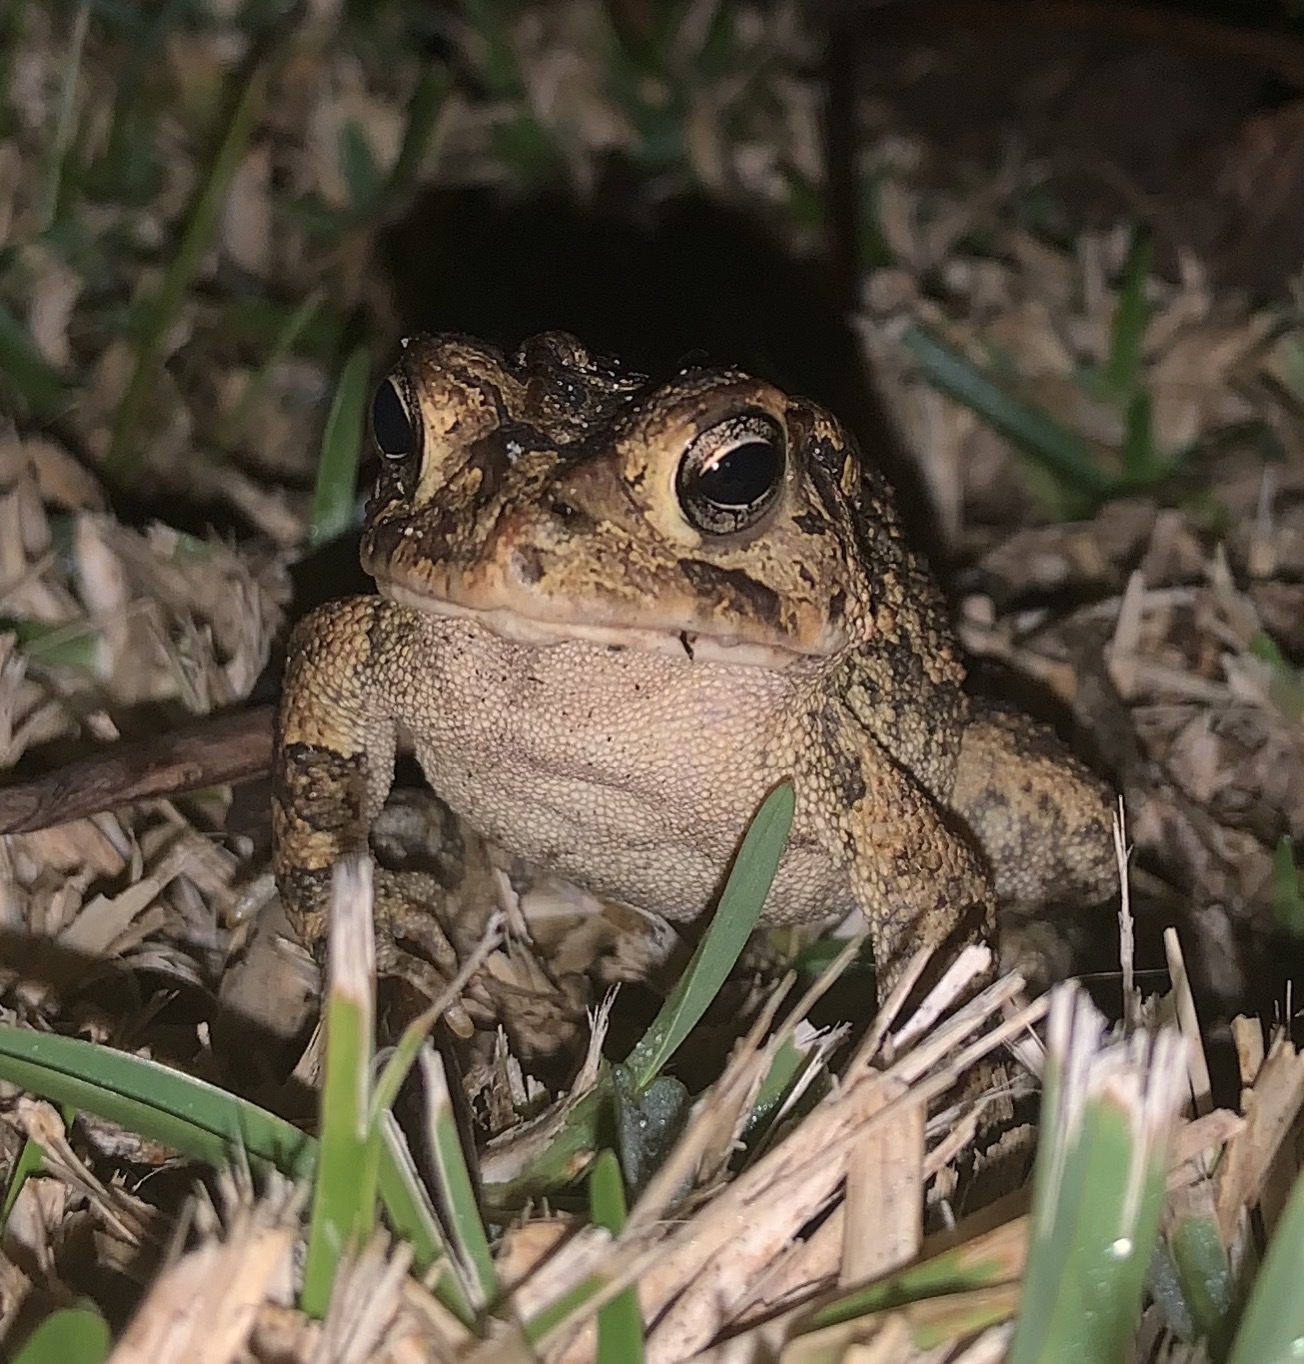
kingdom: Animalia
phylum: Chordata
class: Amphibia
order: Anura
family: Bufonidae
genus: Anaxyrus
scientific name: Anaxyrus terrestris
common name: Southern toad
